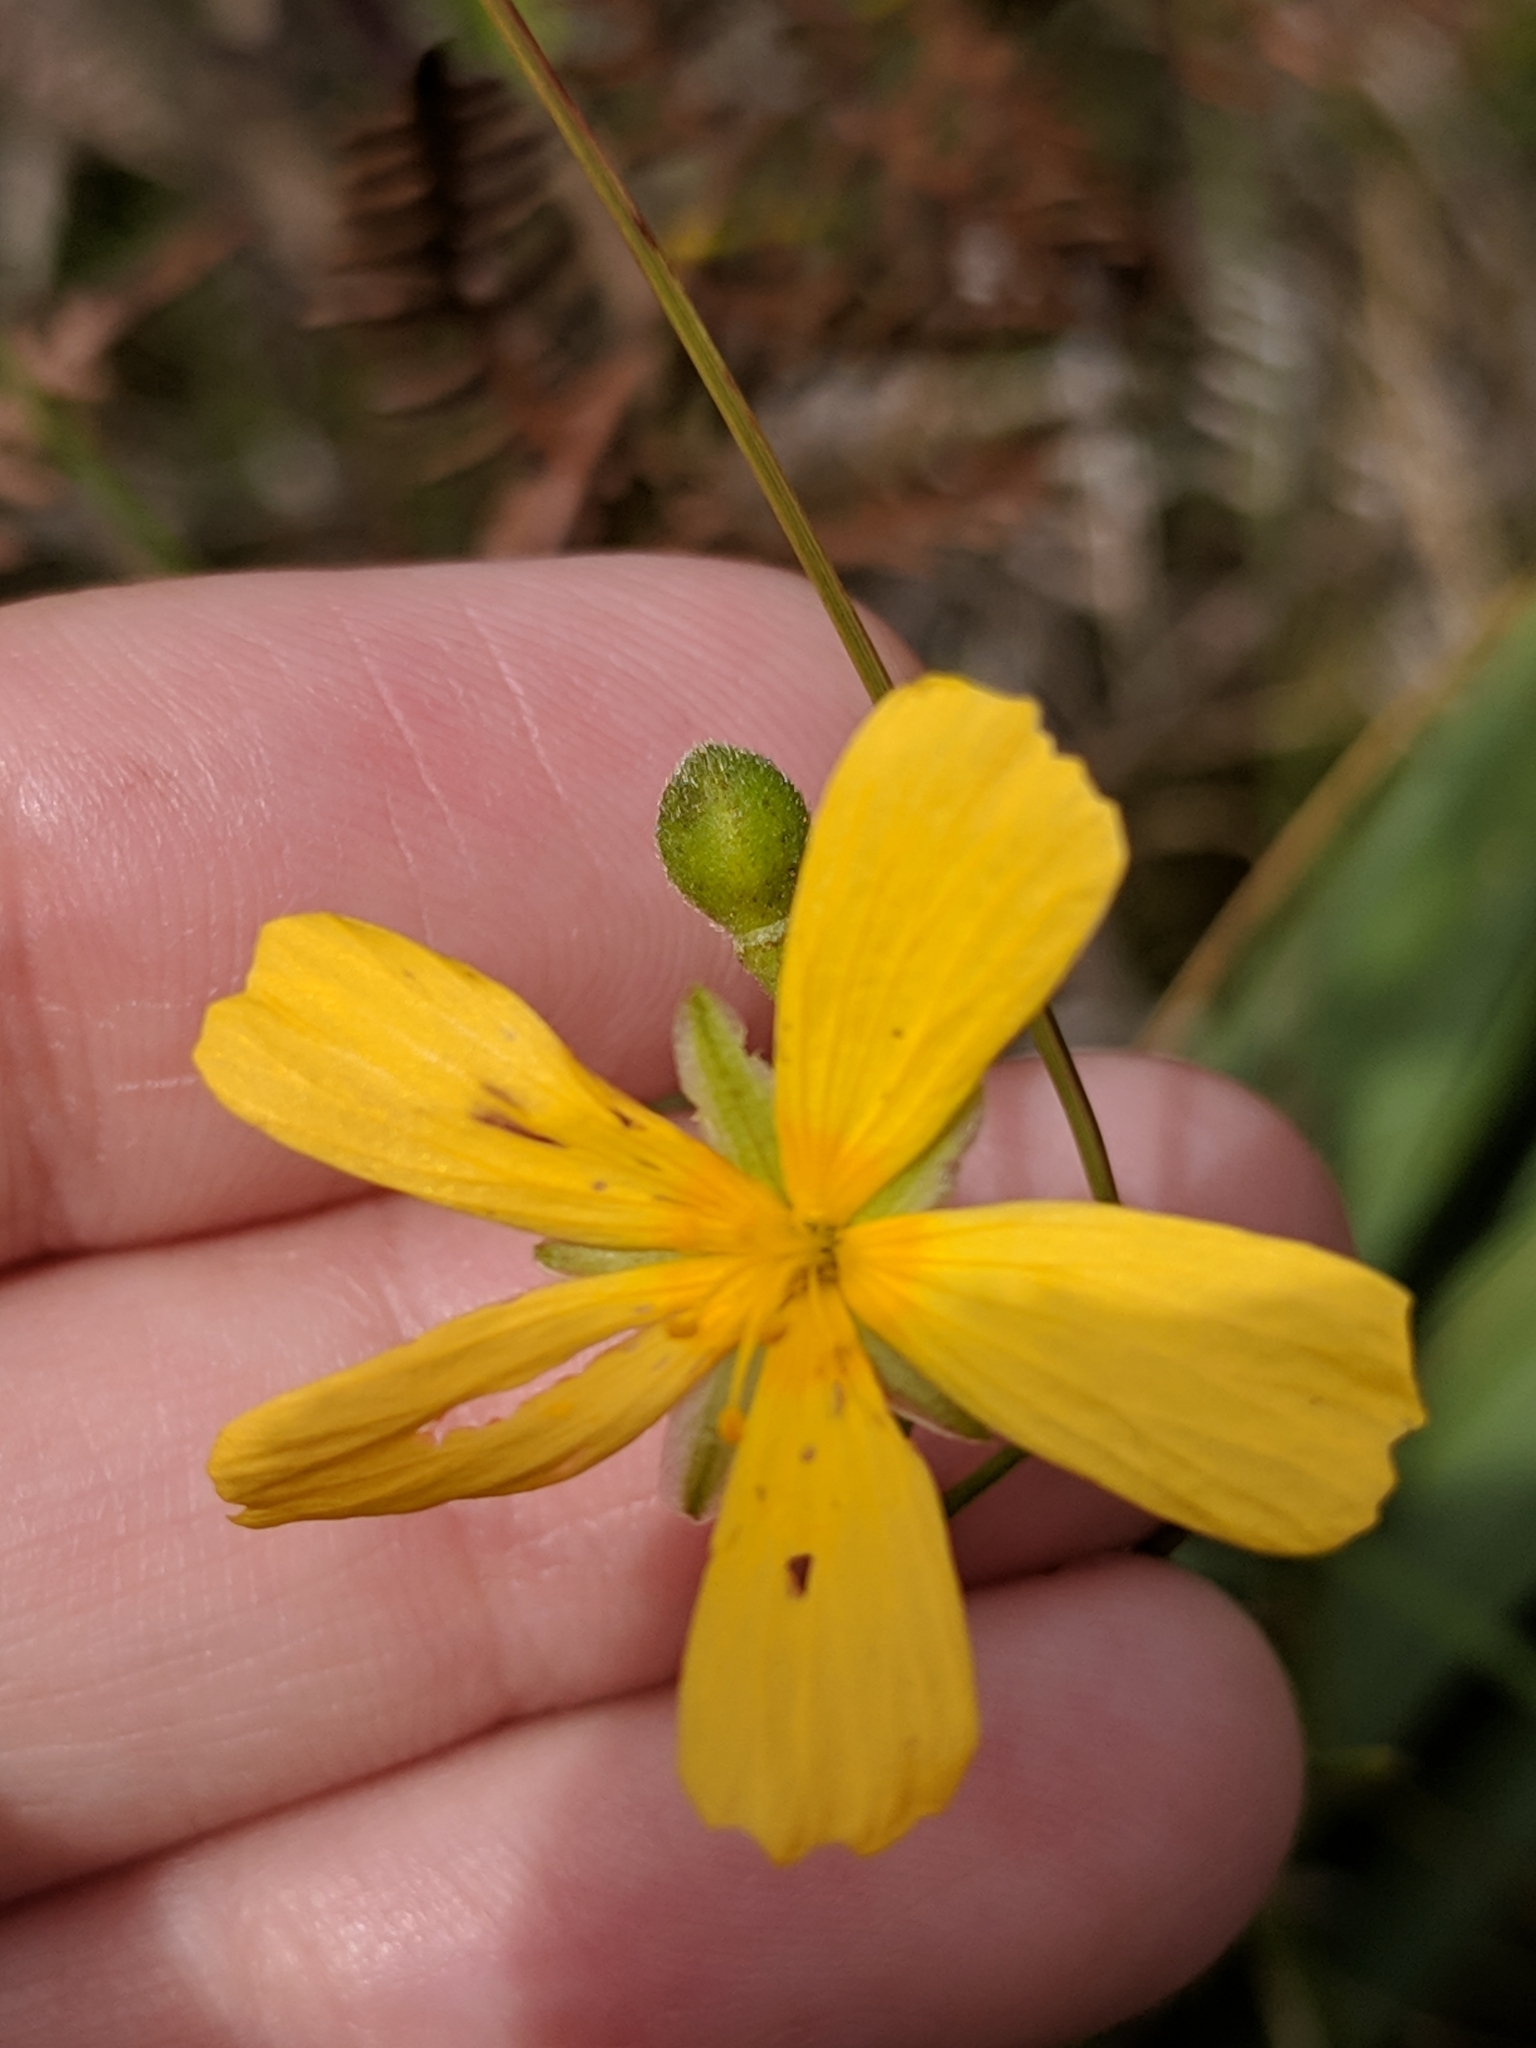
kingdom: Plantae
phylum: Tracheophyta
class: Magnoliopsida
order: Malpighiales
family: Turneraceae
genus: Piriqueta
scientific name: Piriqueta cistoides
